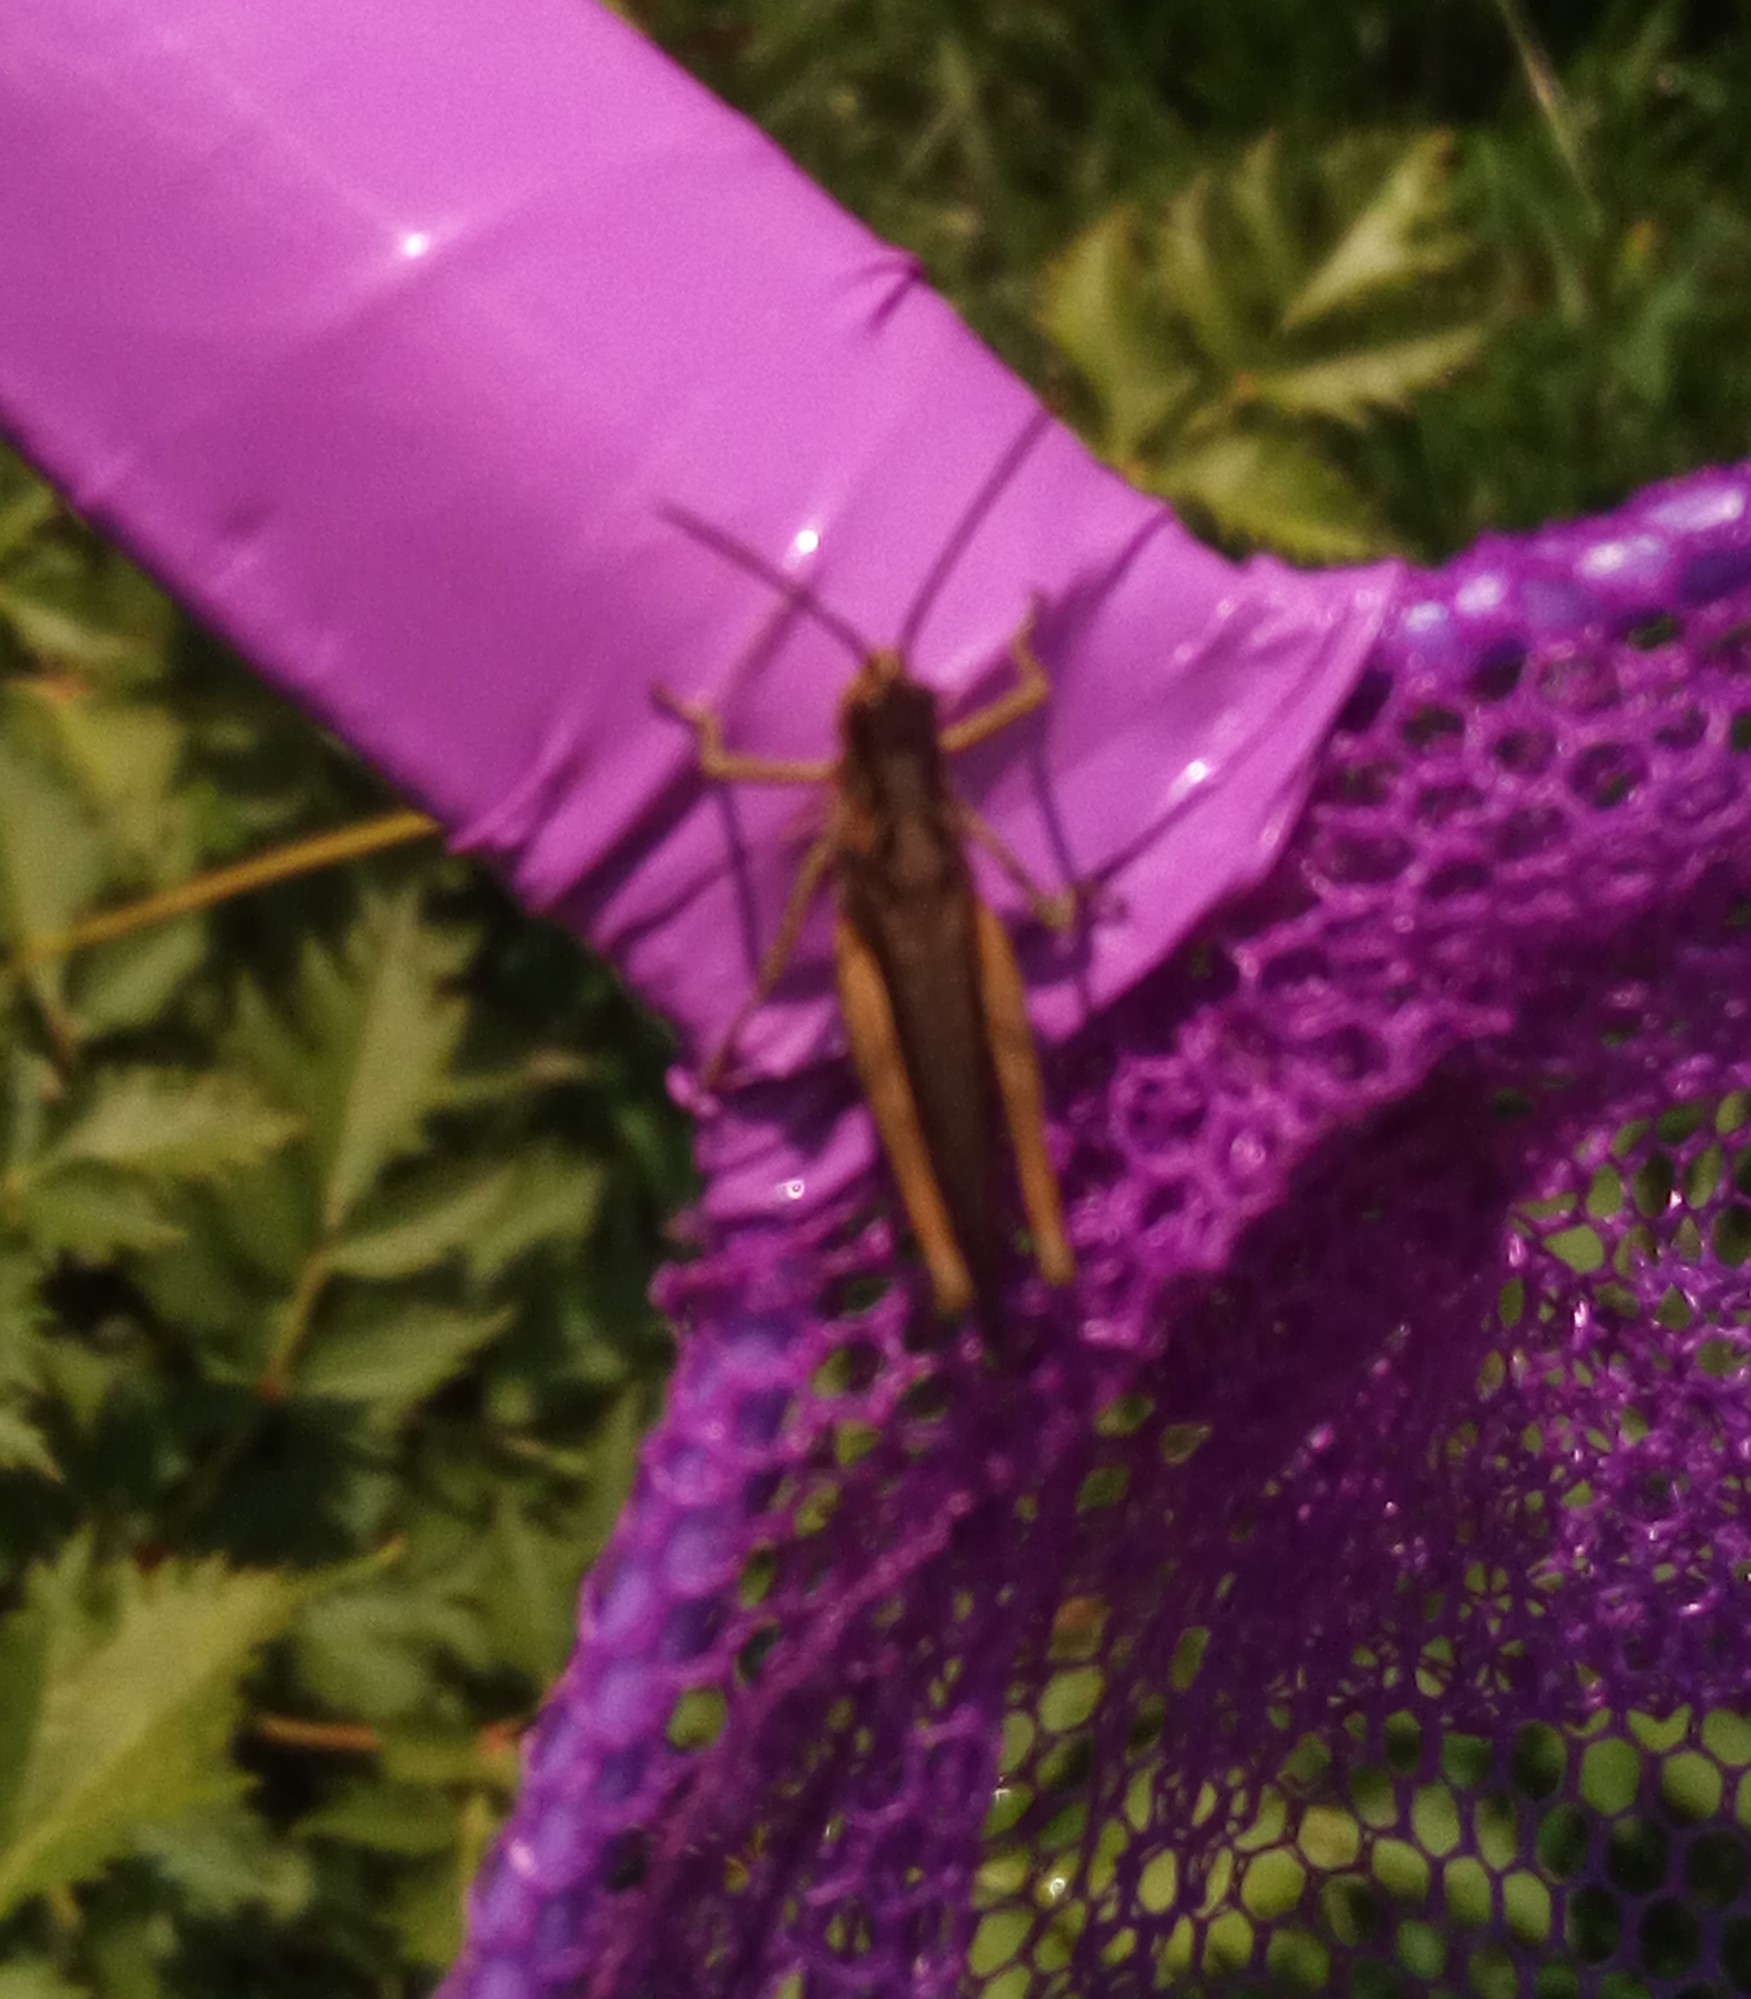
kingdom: Animalia
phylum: Arthropoda
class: Insecta
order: Orthoptera
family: Acrididae
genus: Chorthippus
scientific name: Chorthippus brunneus
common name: Field grasshopper
